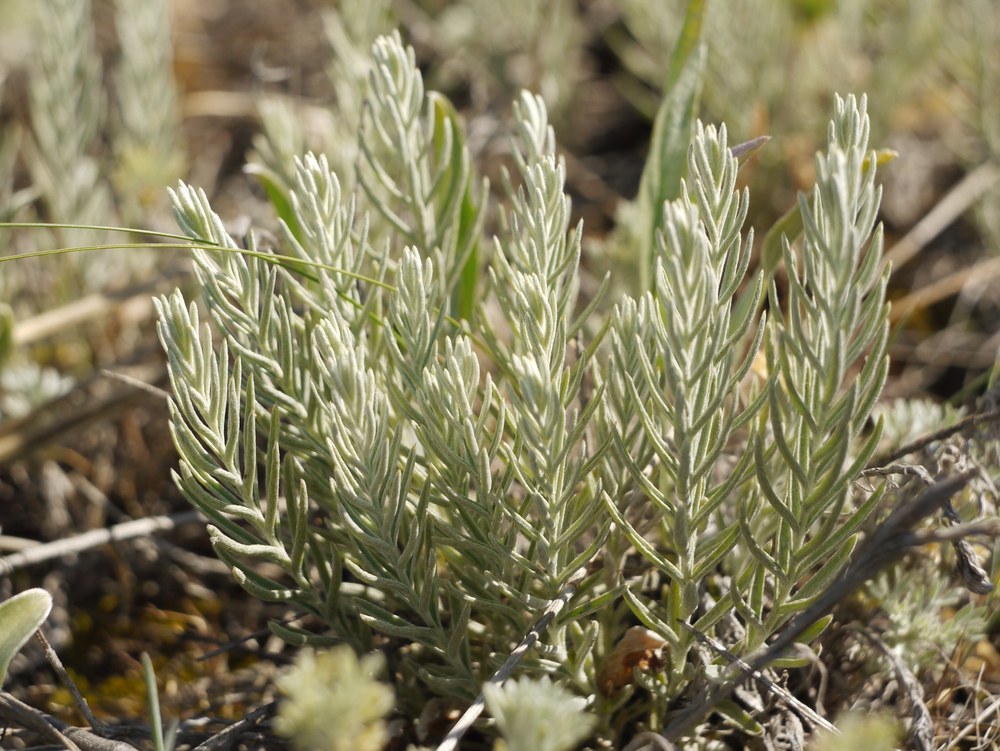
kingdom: Plantae
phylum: Tracheophyta
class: Magnoliopsida
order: Lamiales
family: Orobanchaceae
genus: Cymbaria
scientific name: Cymbaria borysthenica
